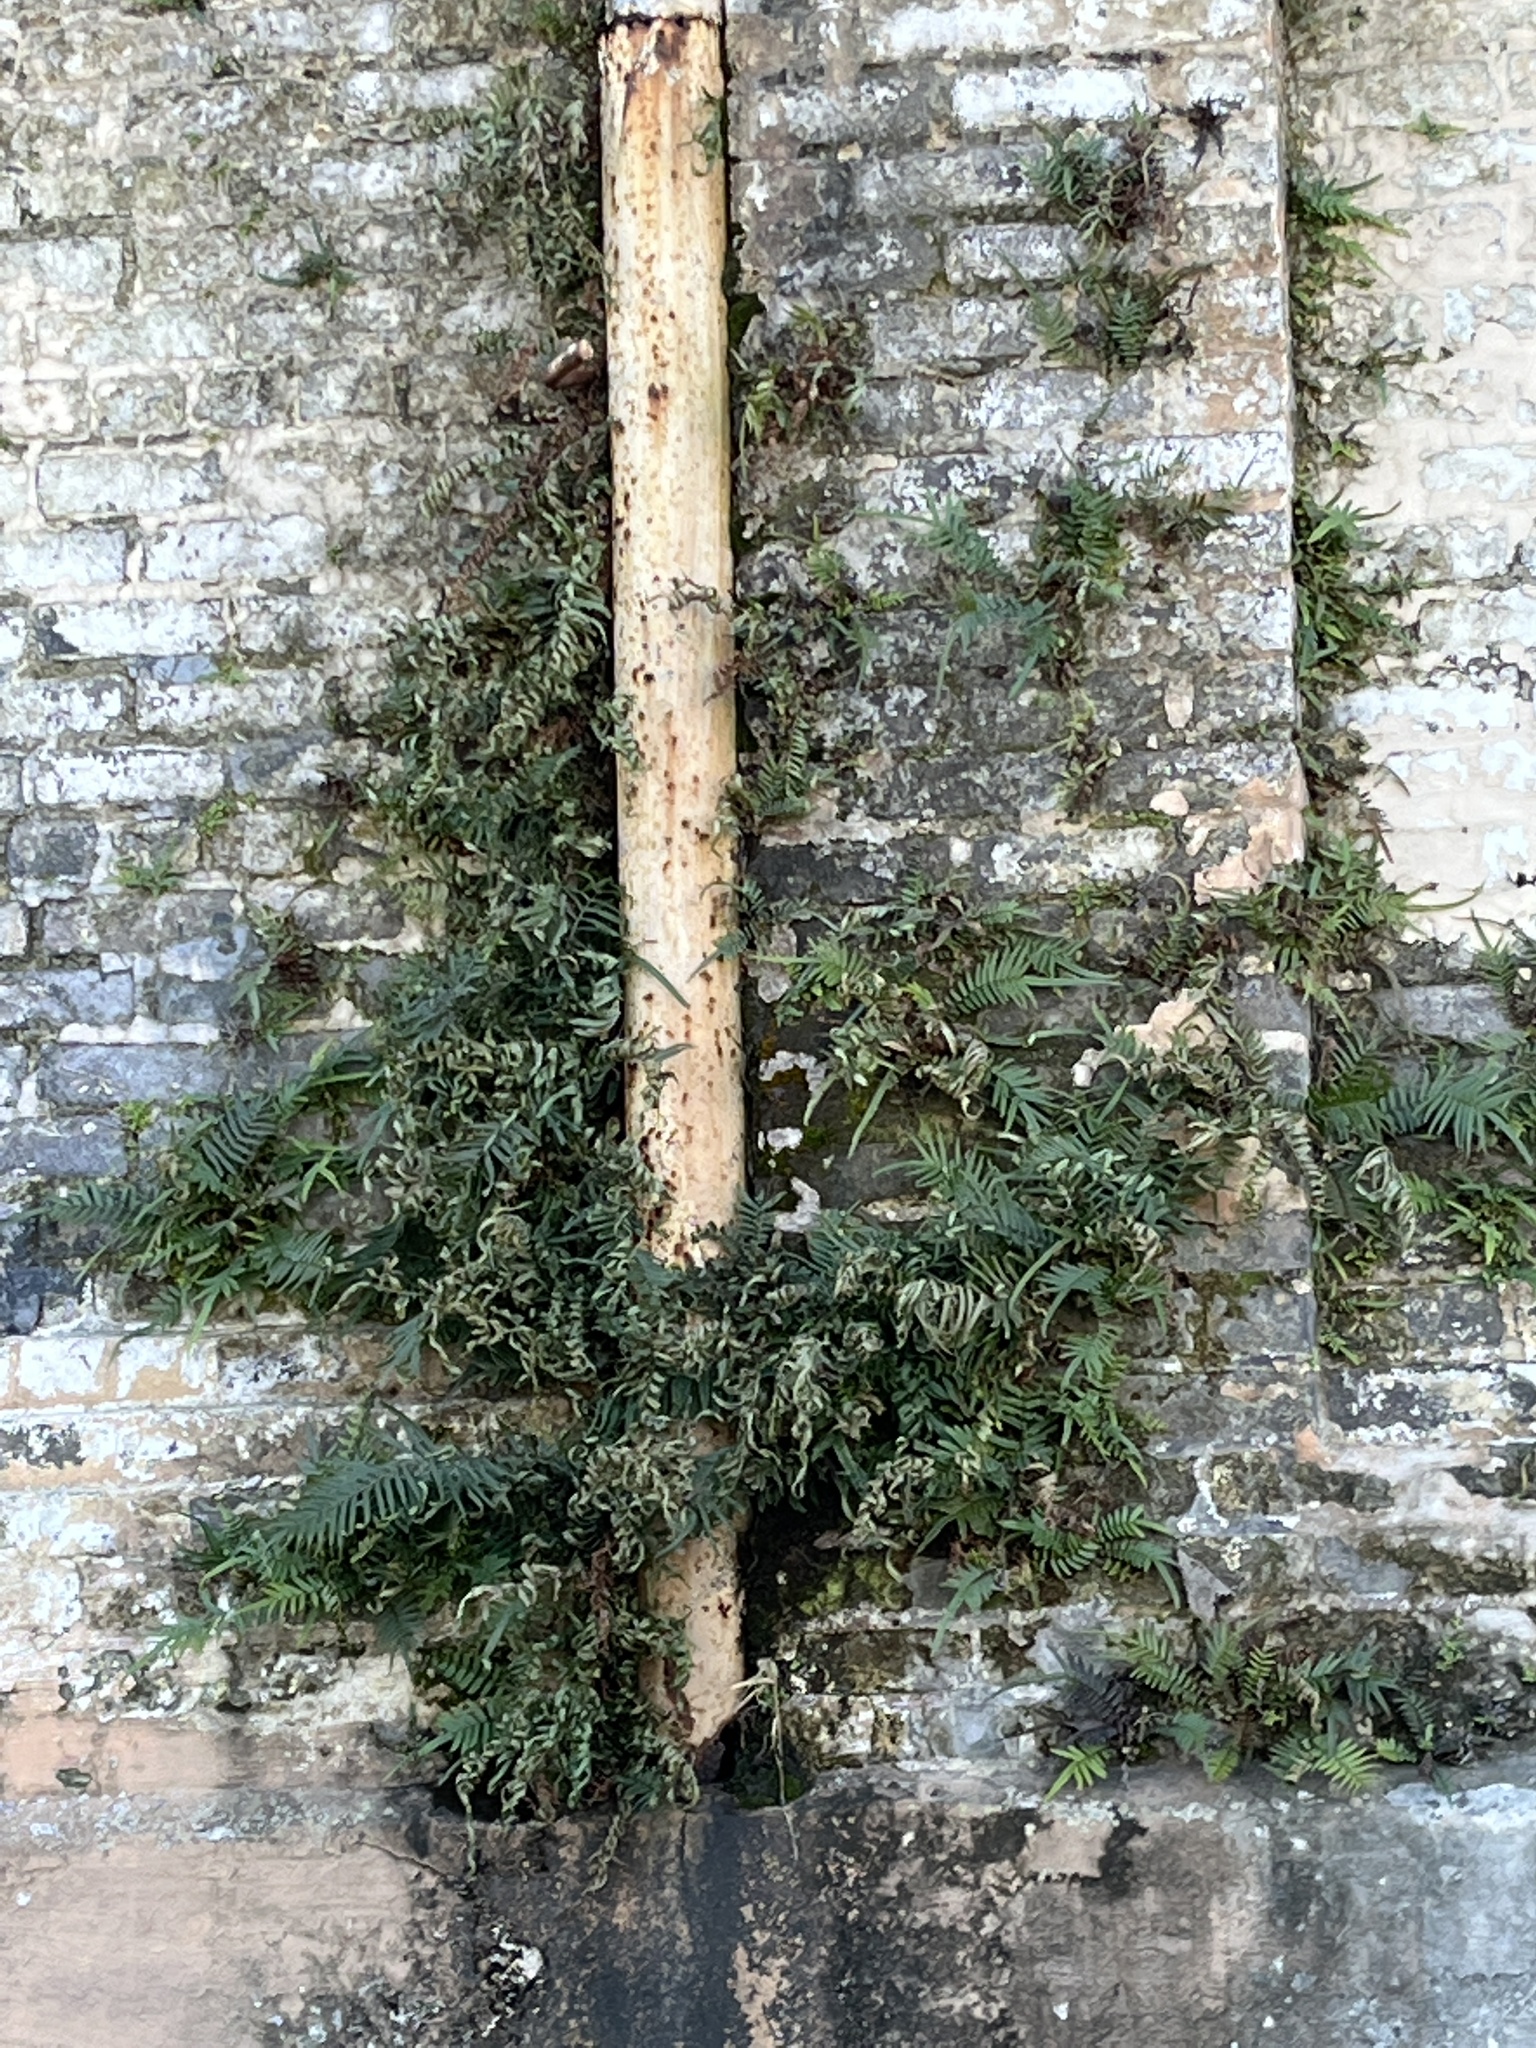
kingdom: Plantae
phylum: Tracheophyta
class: Polypodiopsida
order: Polypodiales
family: Polypodiaceae
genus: Pleopeltis
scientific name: Pleopeltis michauxiana
